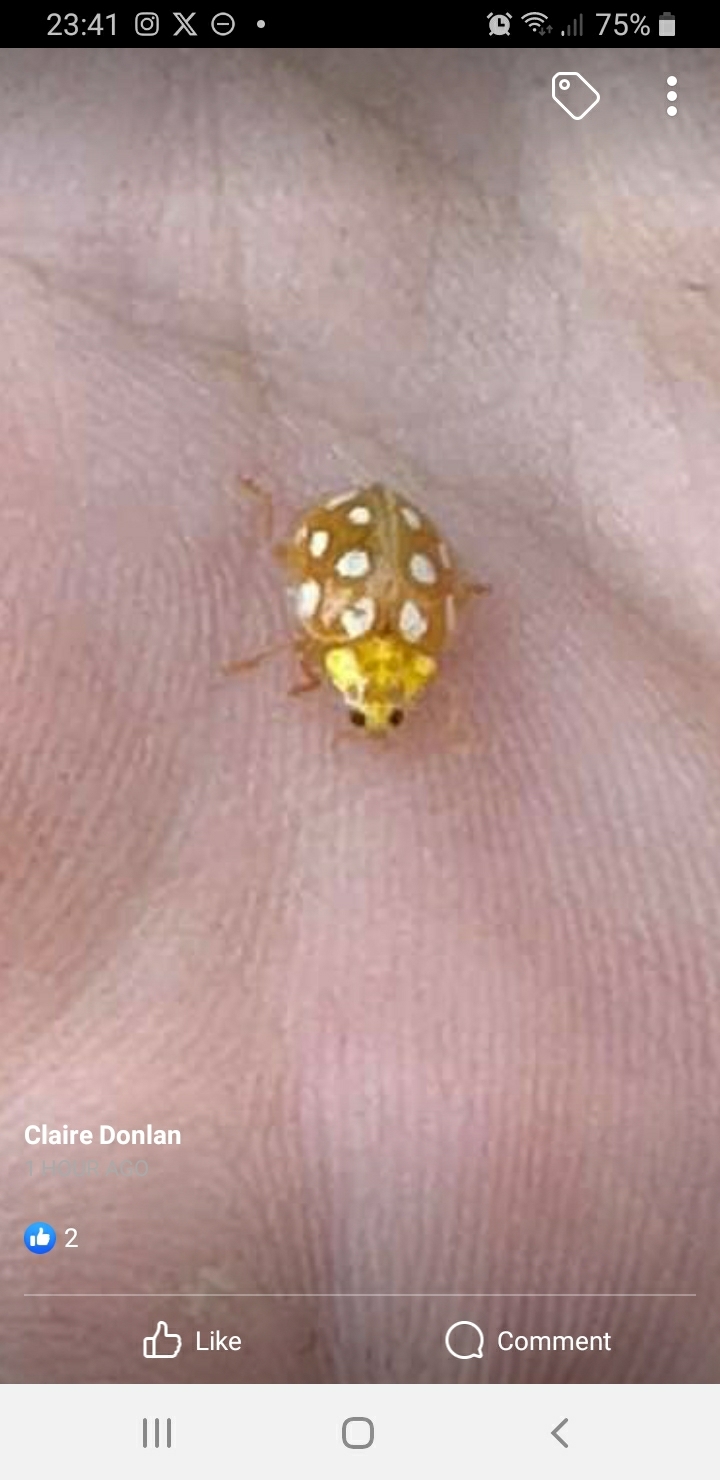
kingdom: Animalia
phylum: Arthropoda
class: Insecta
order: Coleoptera
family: Coccinellidae
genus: Halyzia
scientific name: Halyzia sedecimguttata
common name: Orange ladybird
